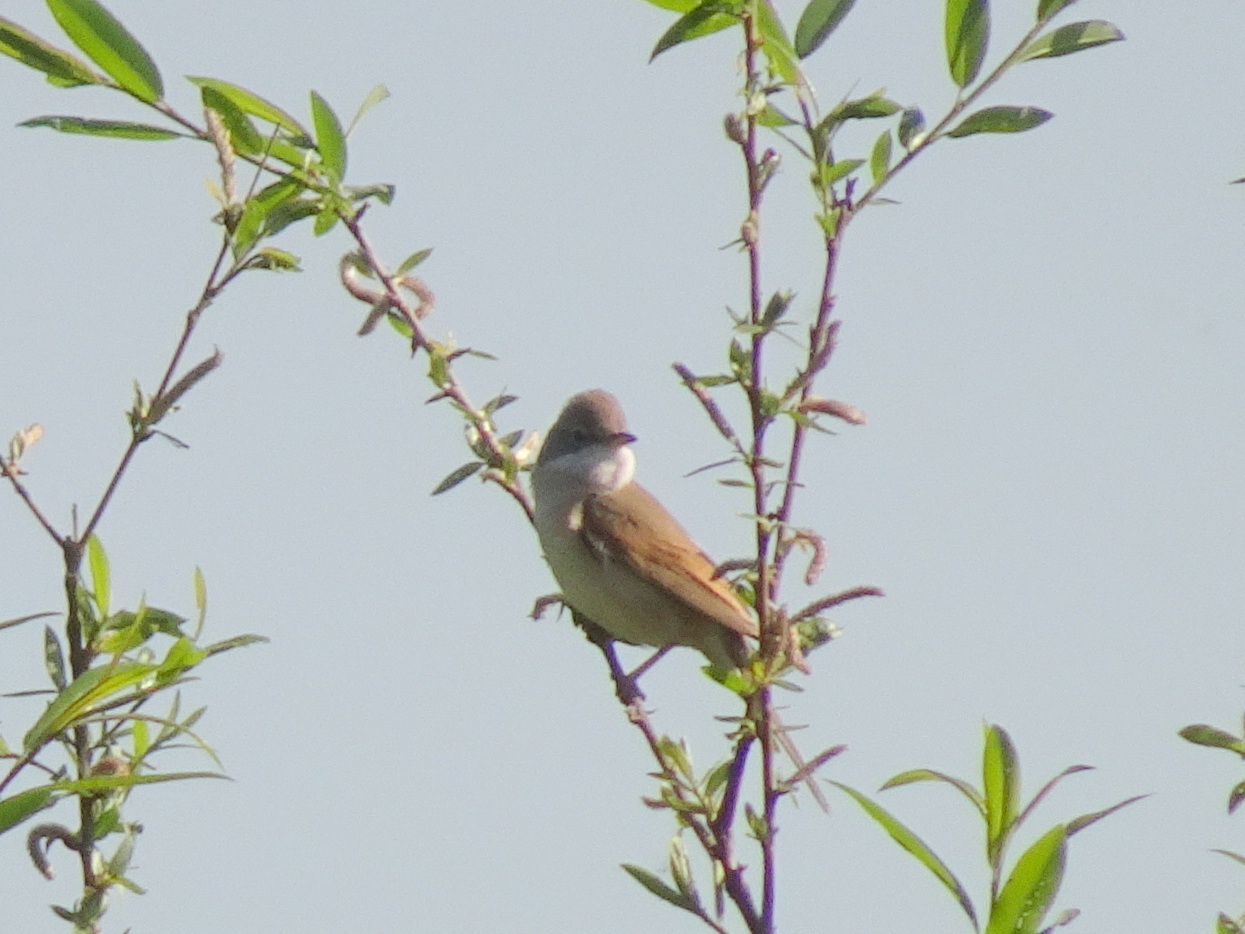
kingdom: Animalia
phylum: Chordata
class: Aves
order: Passeriformes
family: Sylviidae
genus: Sylvia
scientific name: Sylvia communis
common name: Common whitethroat
